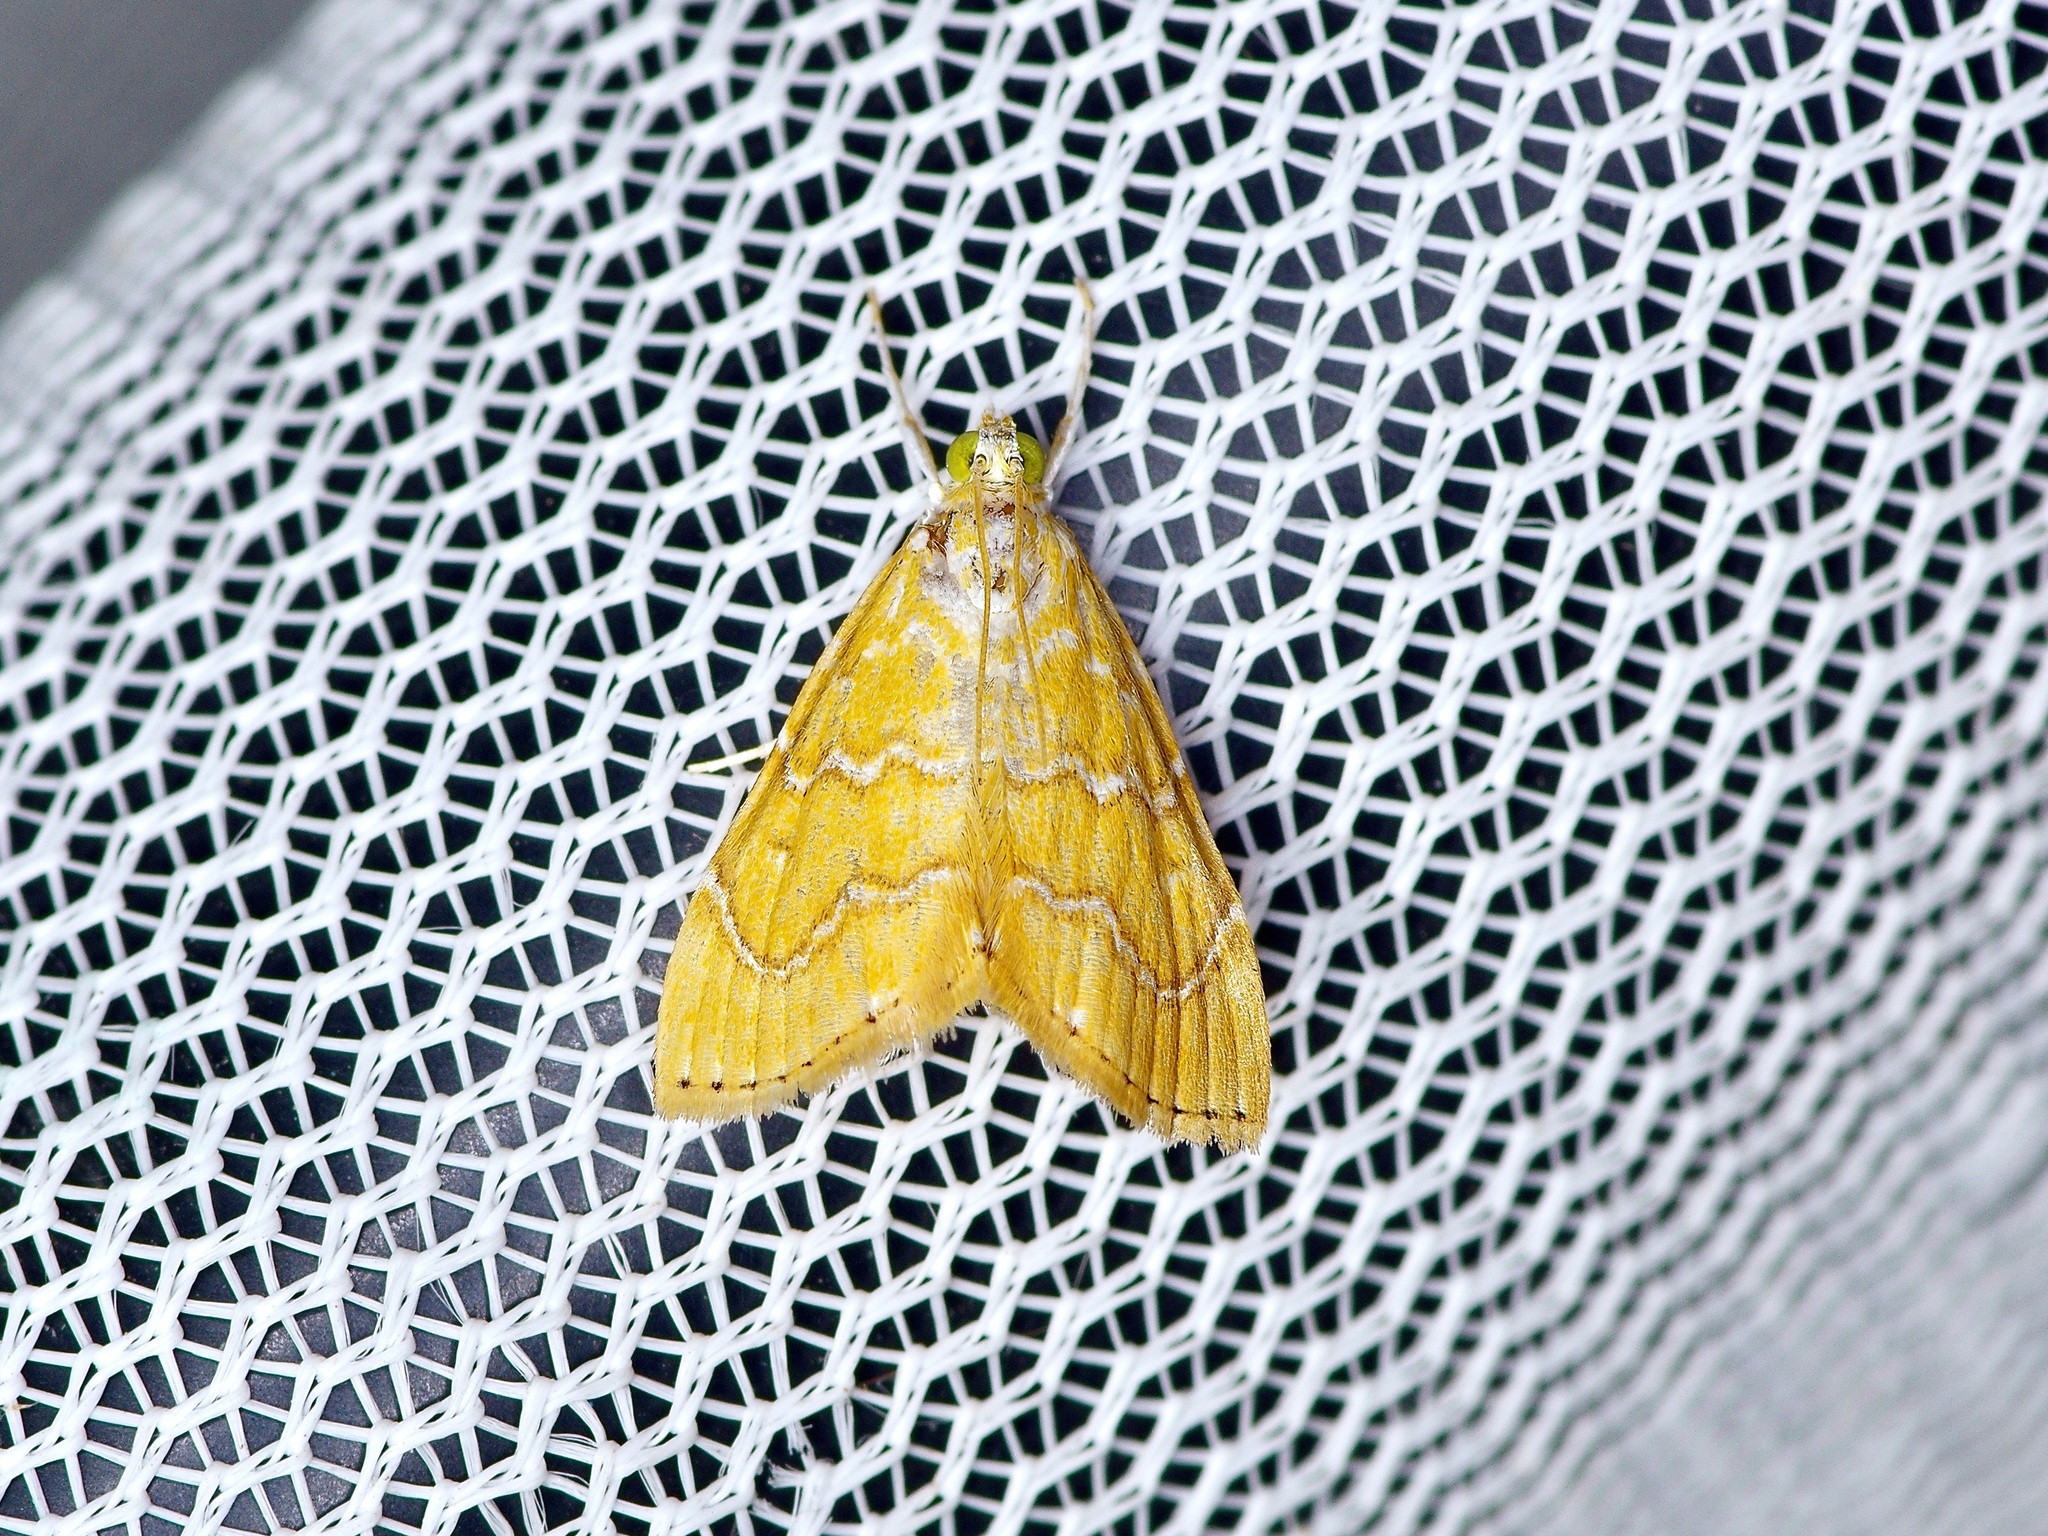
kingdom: Animalia
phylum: Arthropoda
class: Insecta
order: Lepidoptera
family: Crambidae
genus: Glaphyria
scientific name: Glaphyria sesquistrialis
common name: White-roped glaphyria
